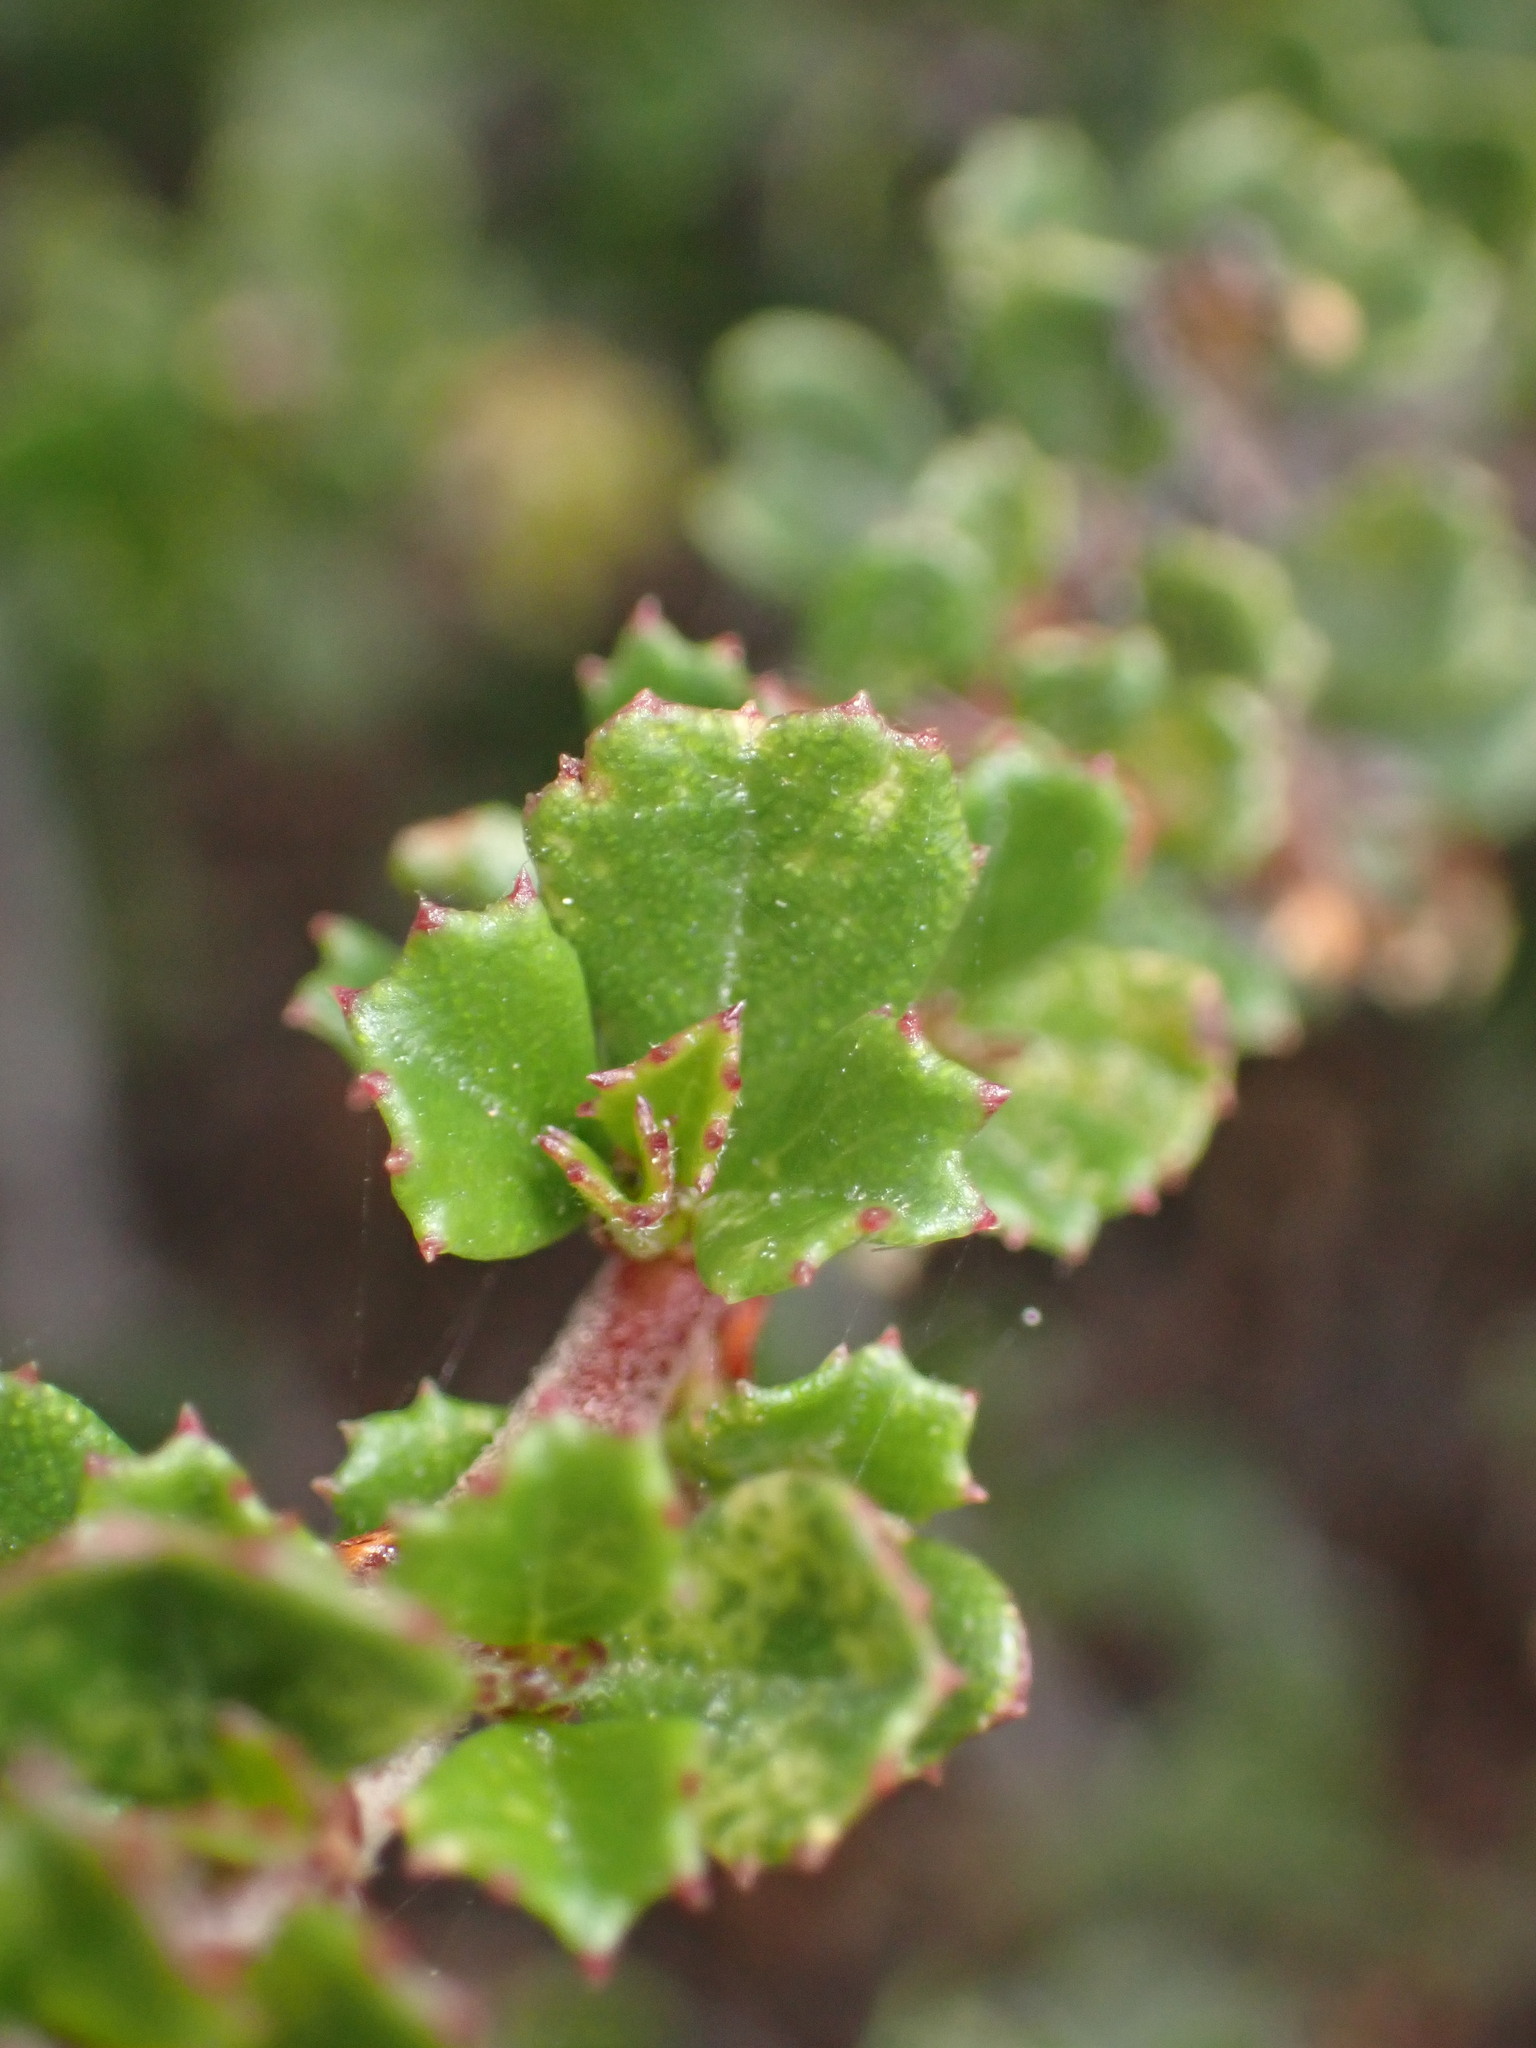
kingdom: Plantae
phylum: Tracheophyta
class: Magnoliopsida
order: Rosales
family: Rhamnaceae
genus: Ceanothus
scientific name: Ceanothus dentatus
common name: Crop-leaf ceanothus
